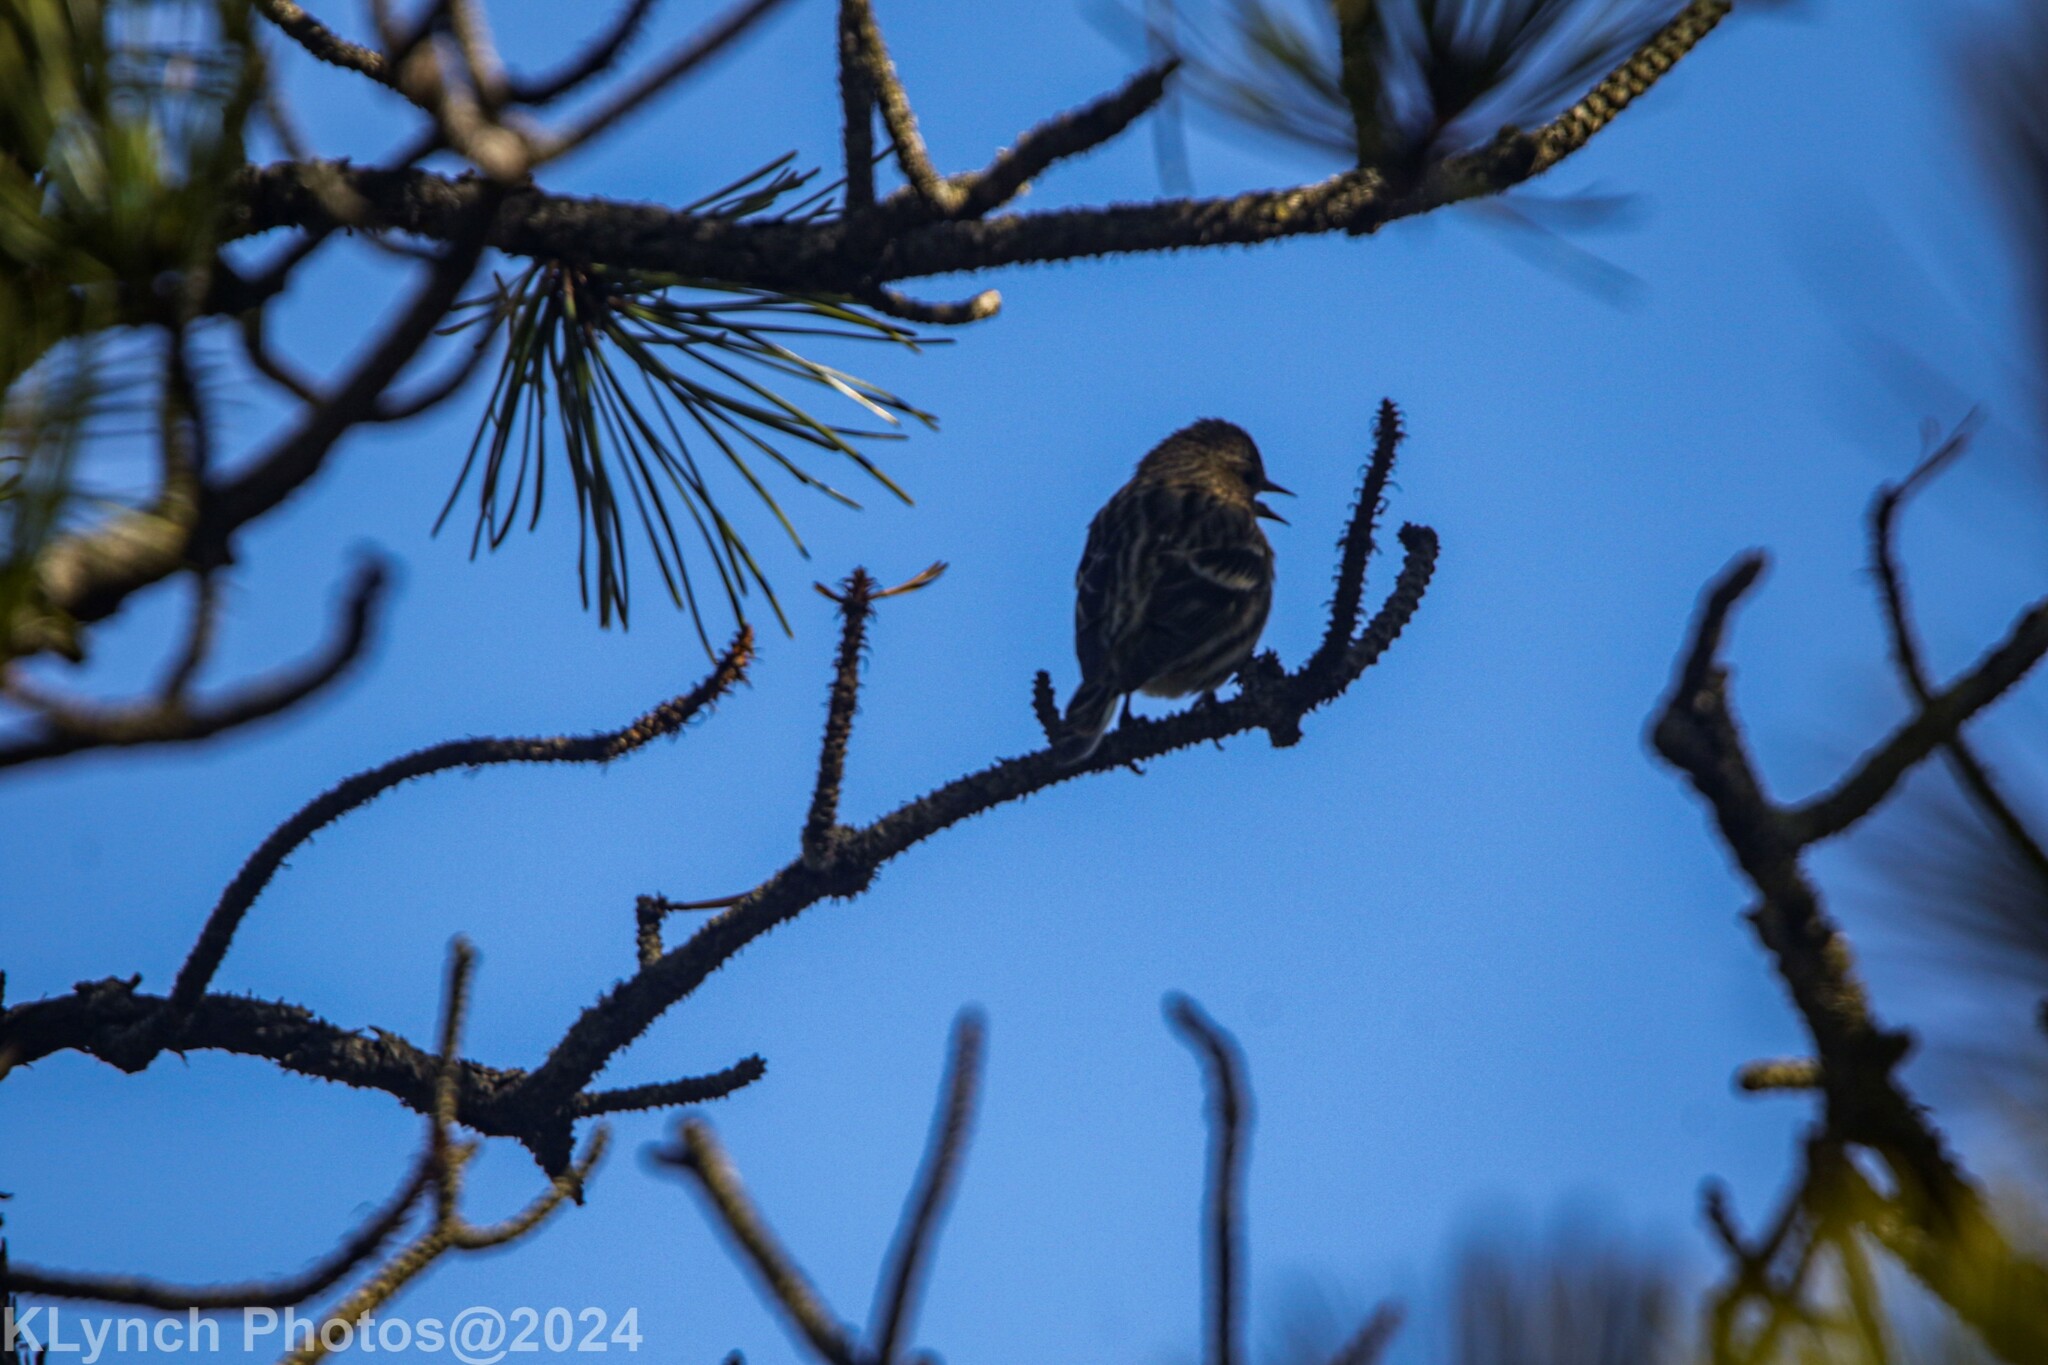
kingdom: Animalia
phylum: Chordata
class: Aves
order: Passeriformes
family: Fringillidae
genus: Spinus
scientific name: Spinus pinus
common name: Pine siskin
